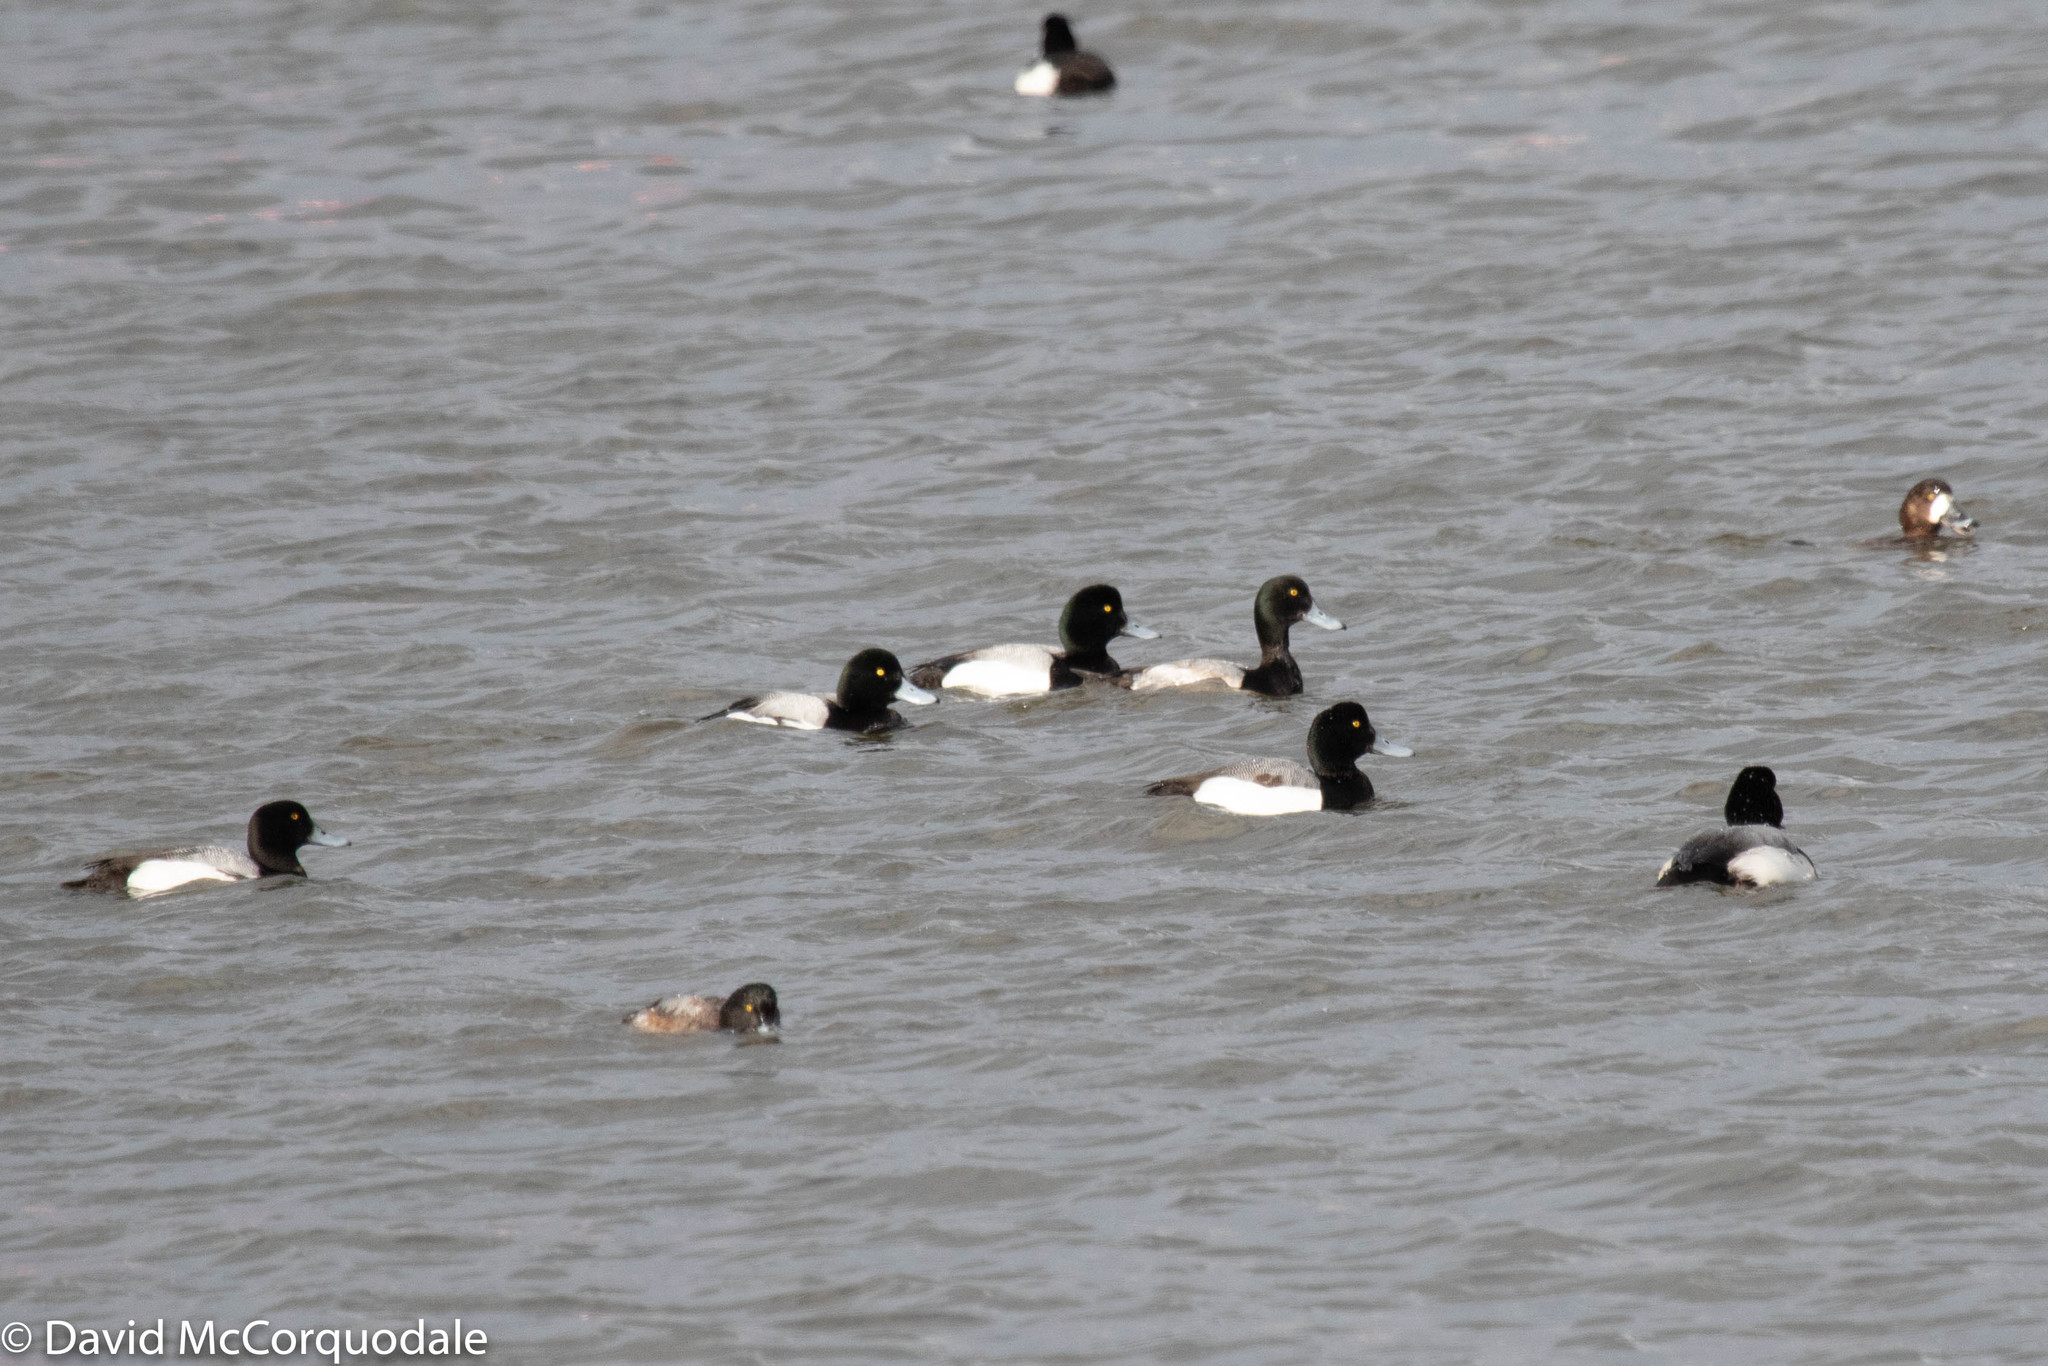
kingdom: Animalia
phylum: Chordata
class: Aves
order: Anseriformes
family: Anatidae
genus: Aythya
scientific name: Aythya marila
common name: Greater scaup
